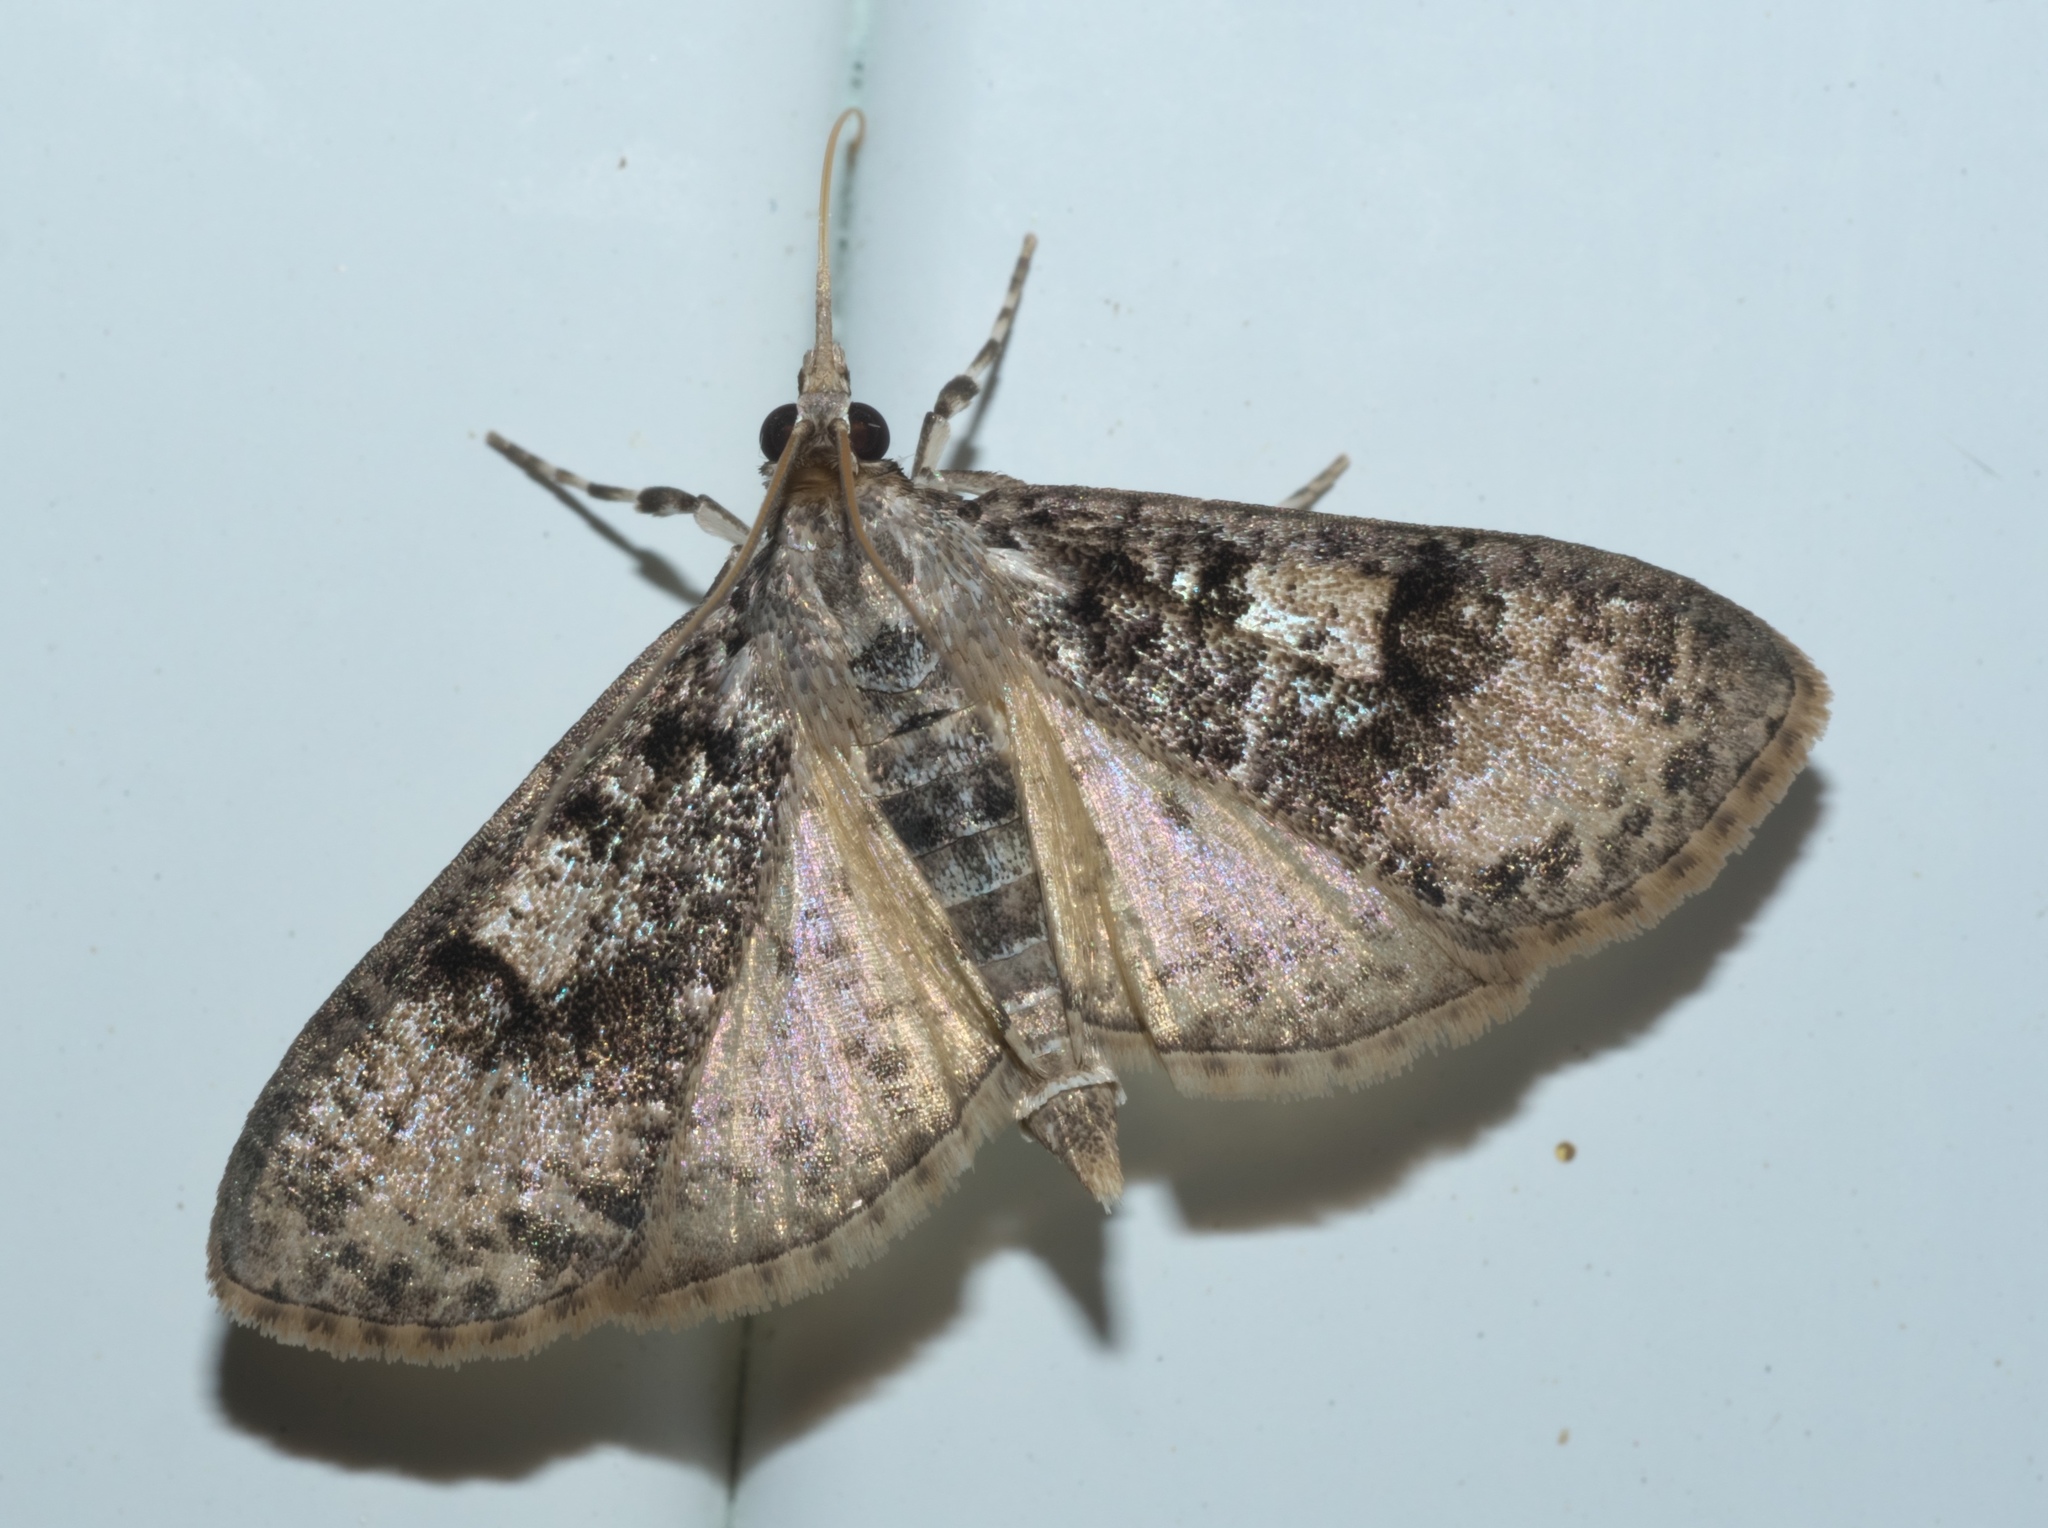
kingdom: Animalia
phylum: Arthropoda
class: Insecta
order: Lepidoptera
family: Crambidae
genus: Palpita
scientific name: Palpita magniferalis
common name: Splendid palpita moth
